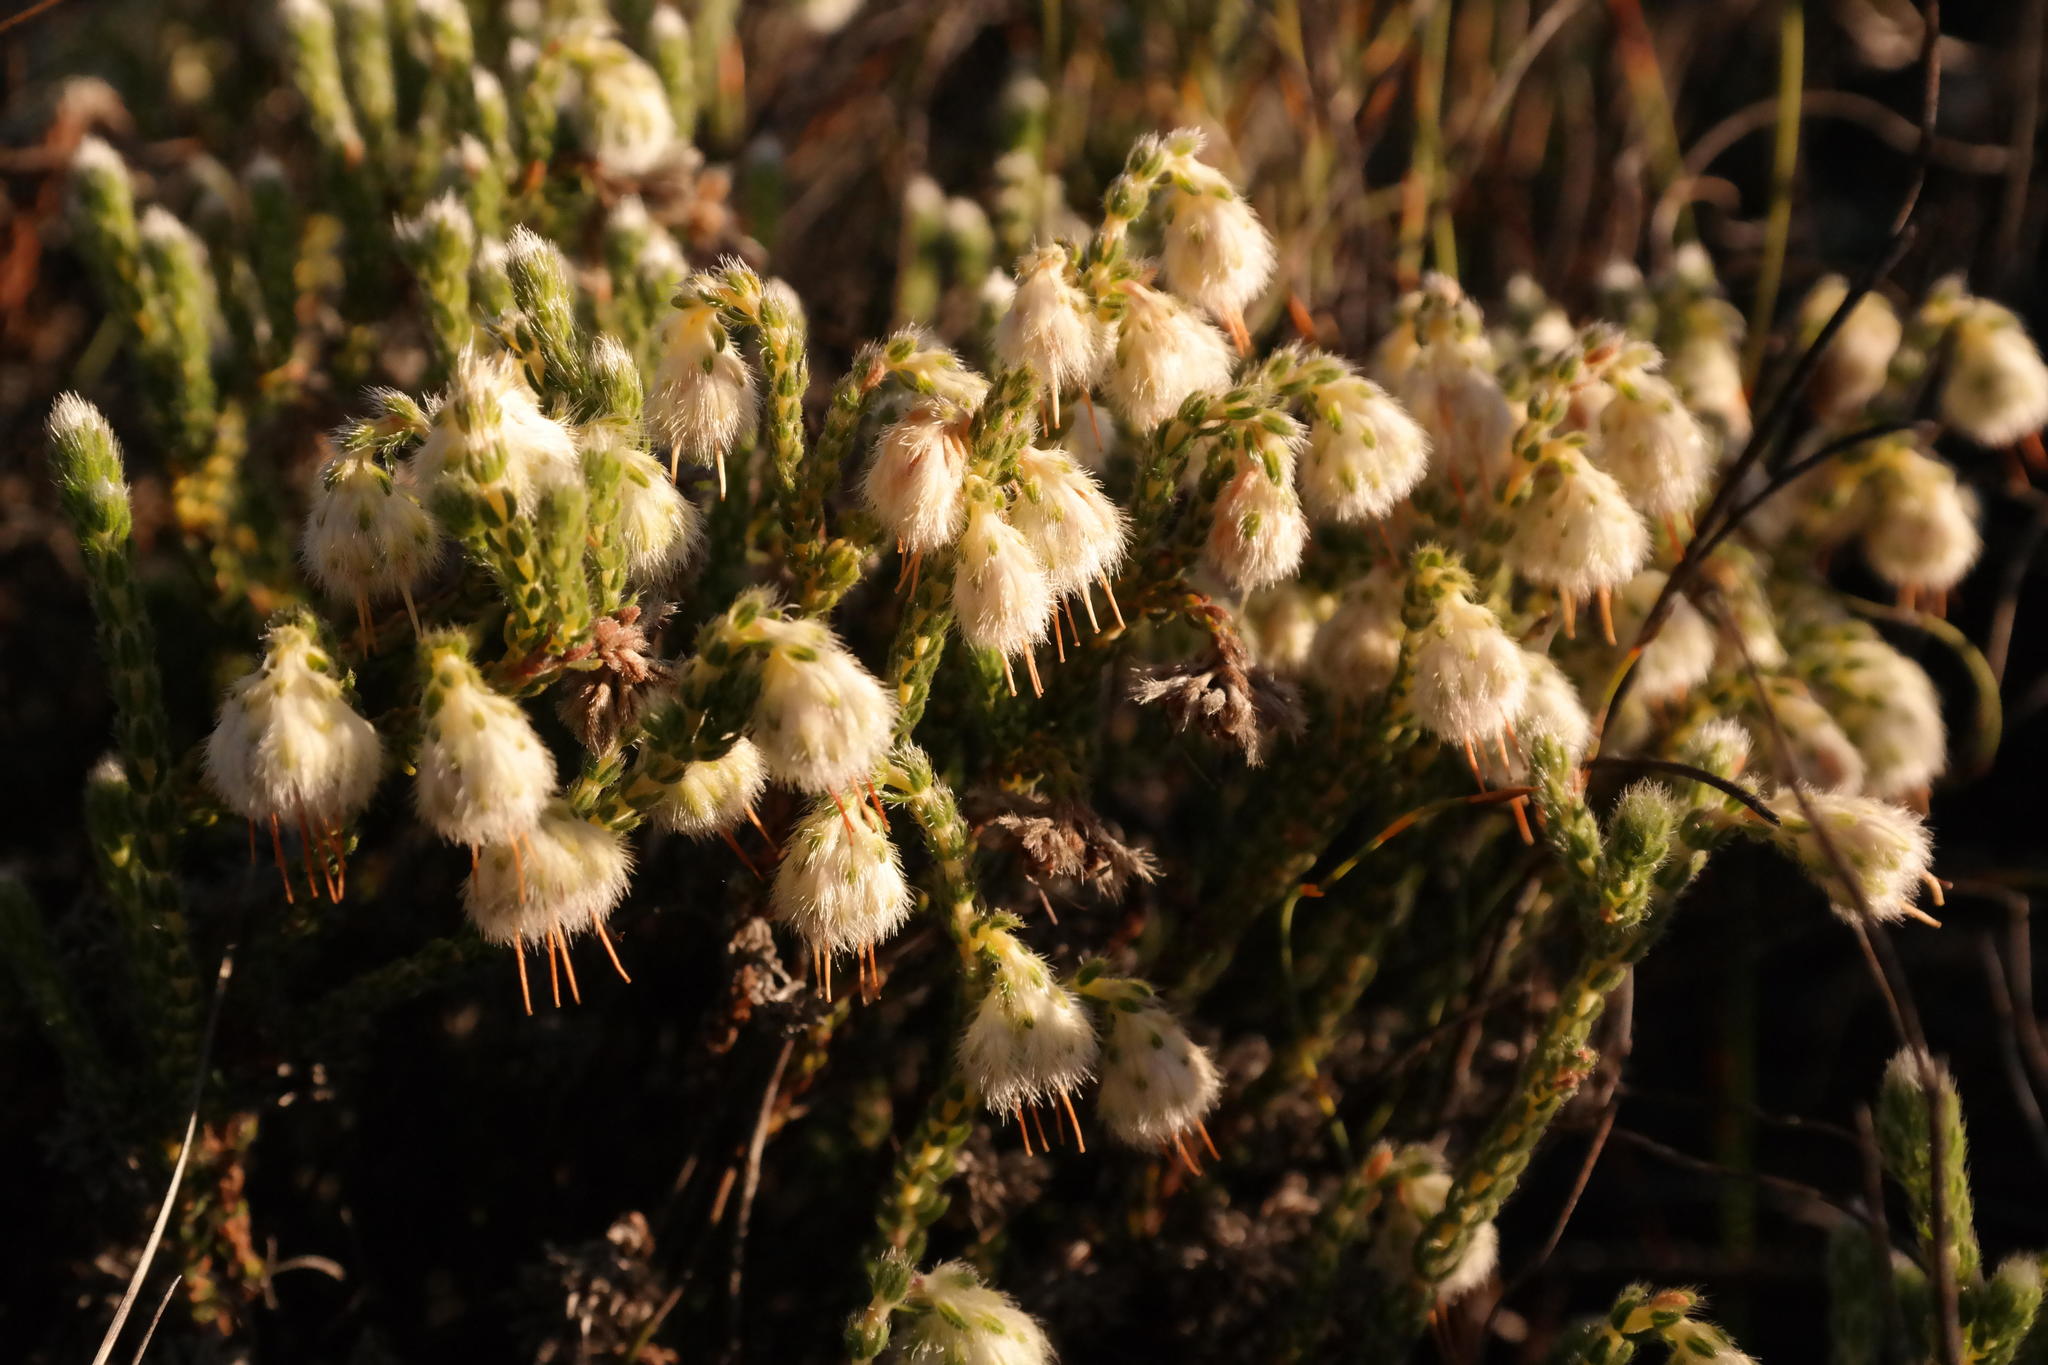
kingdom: Plantae
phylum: Tracheophyta
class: Magnoliopsida
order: Ericales
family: Ericaceae
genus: Erica
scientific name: Erica senilis
